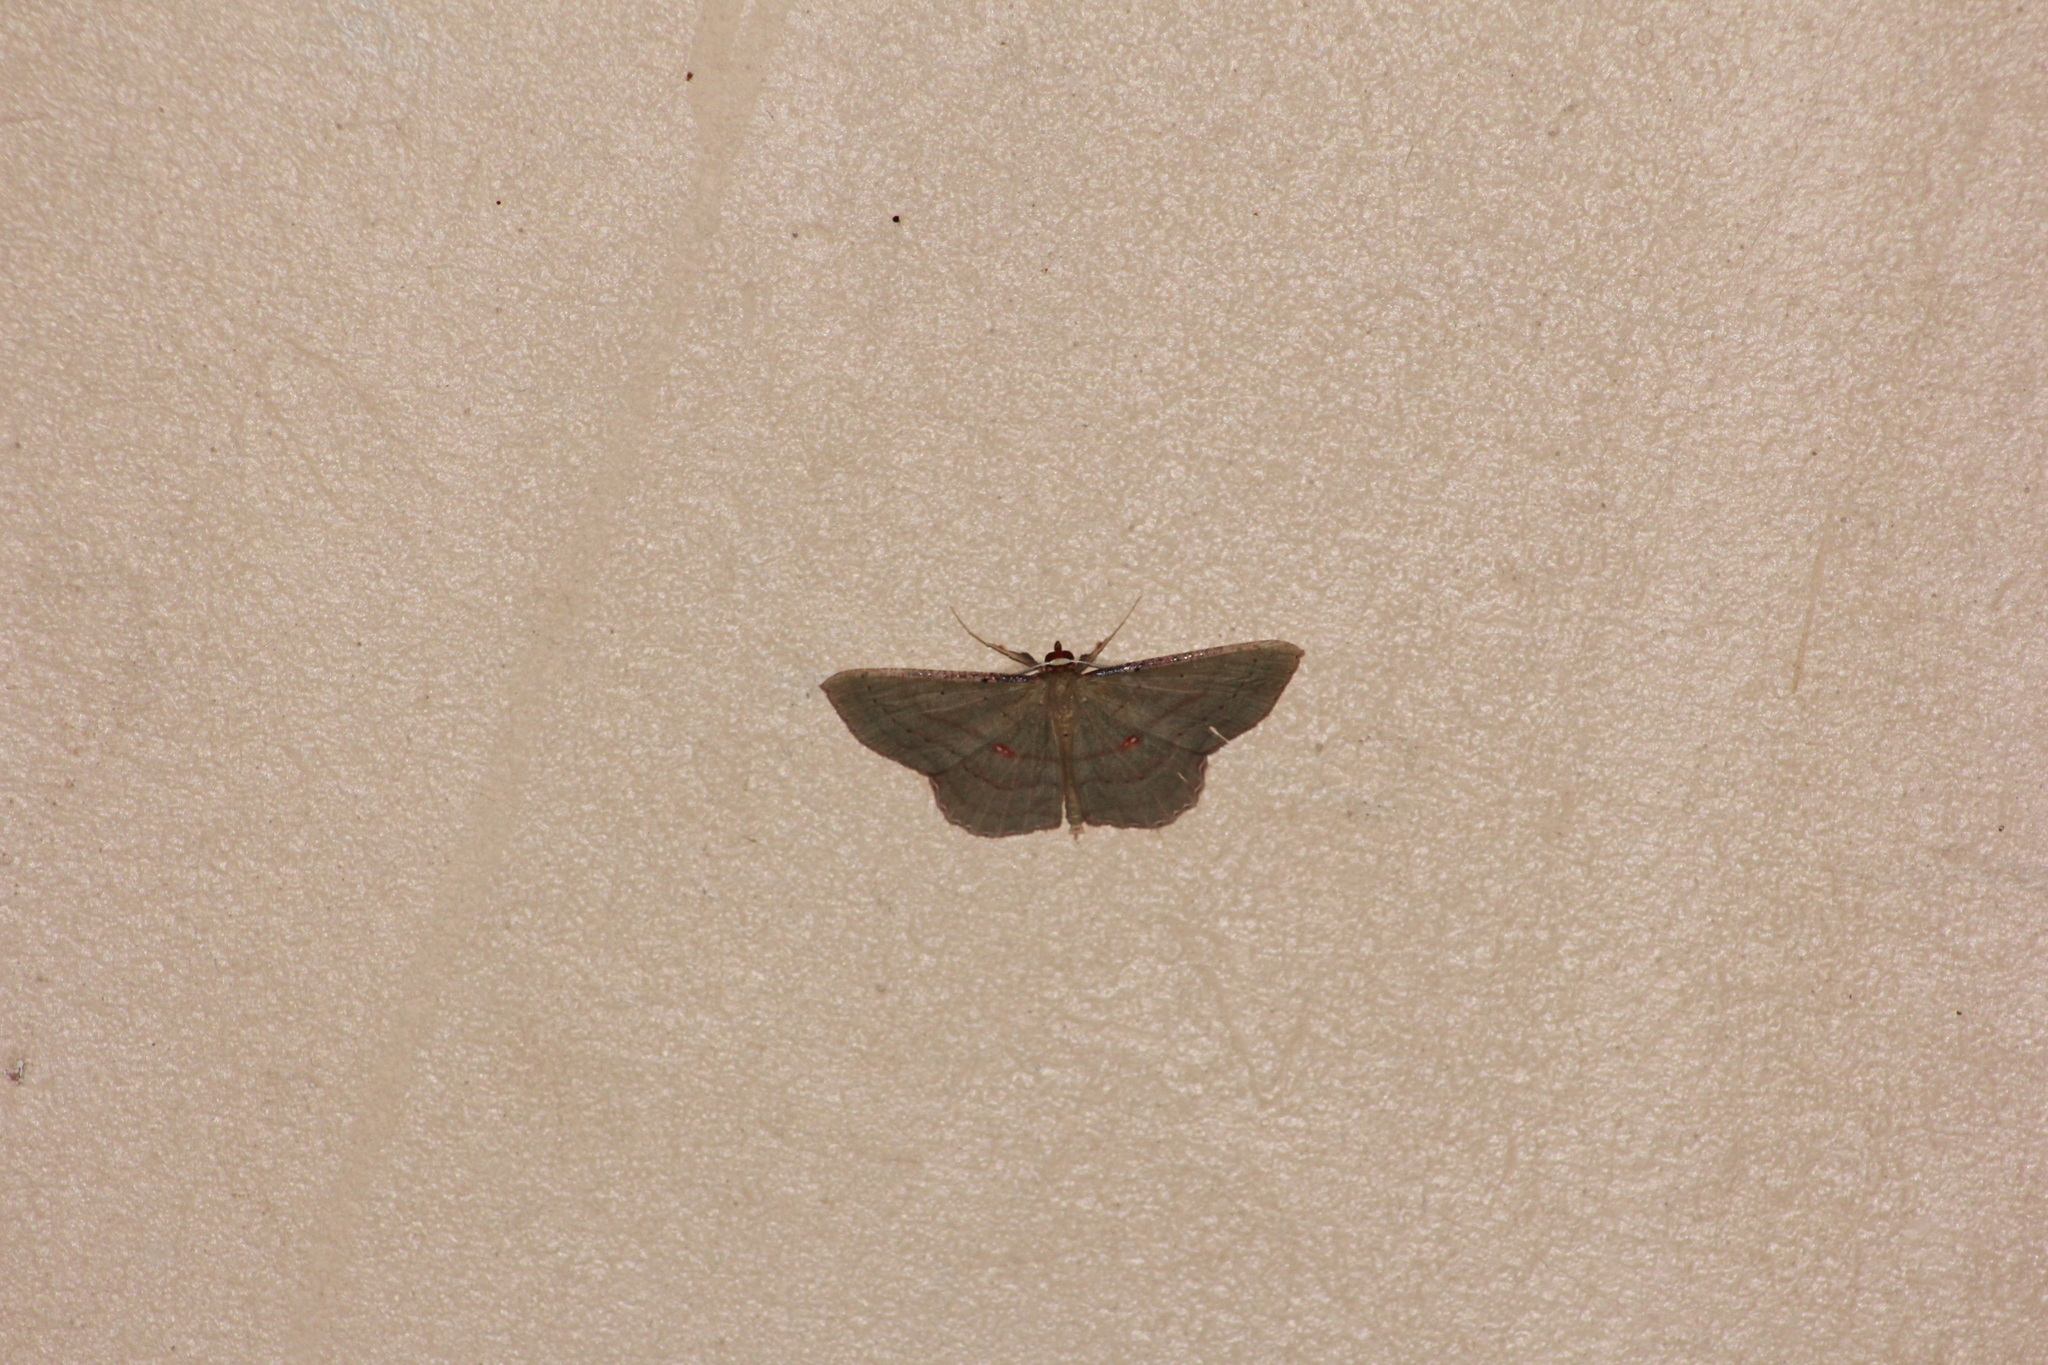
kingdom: Animalia
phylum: Arthropoda
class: Insecta
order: Lepidoptera
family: Geometridae
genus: Ametris
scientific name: Ametris nitocris
